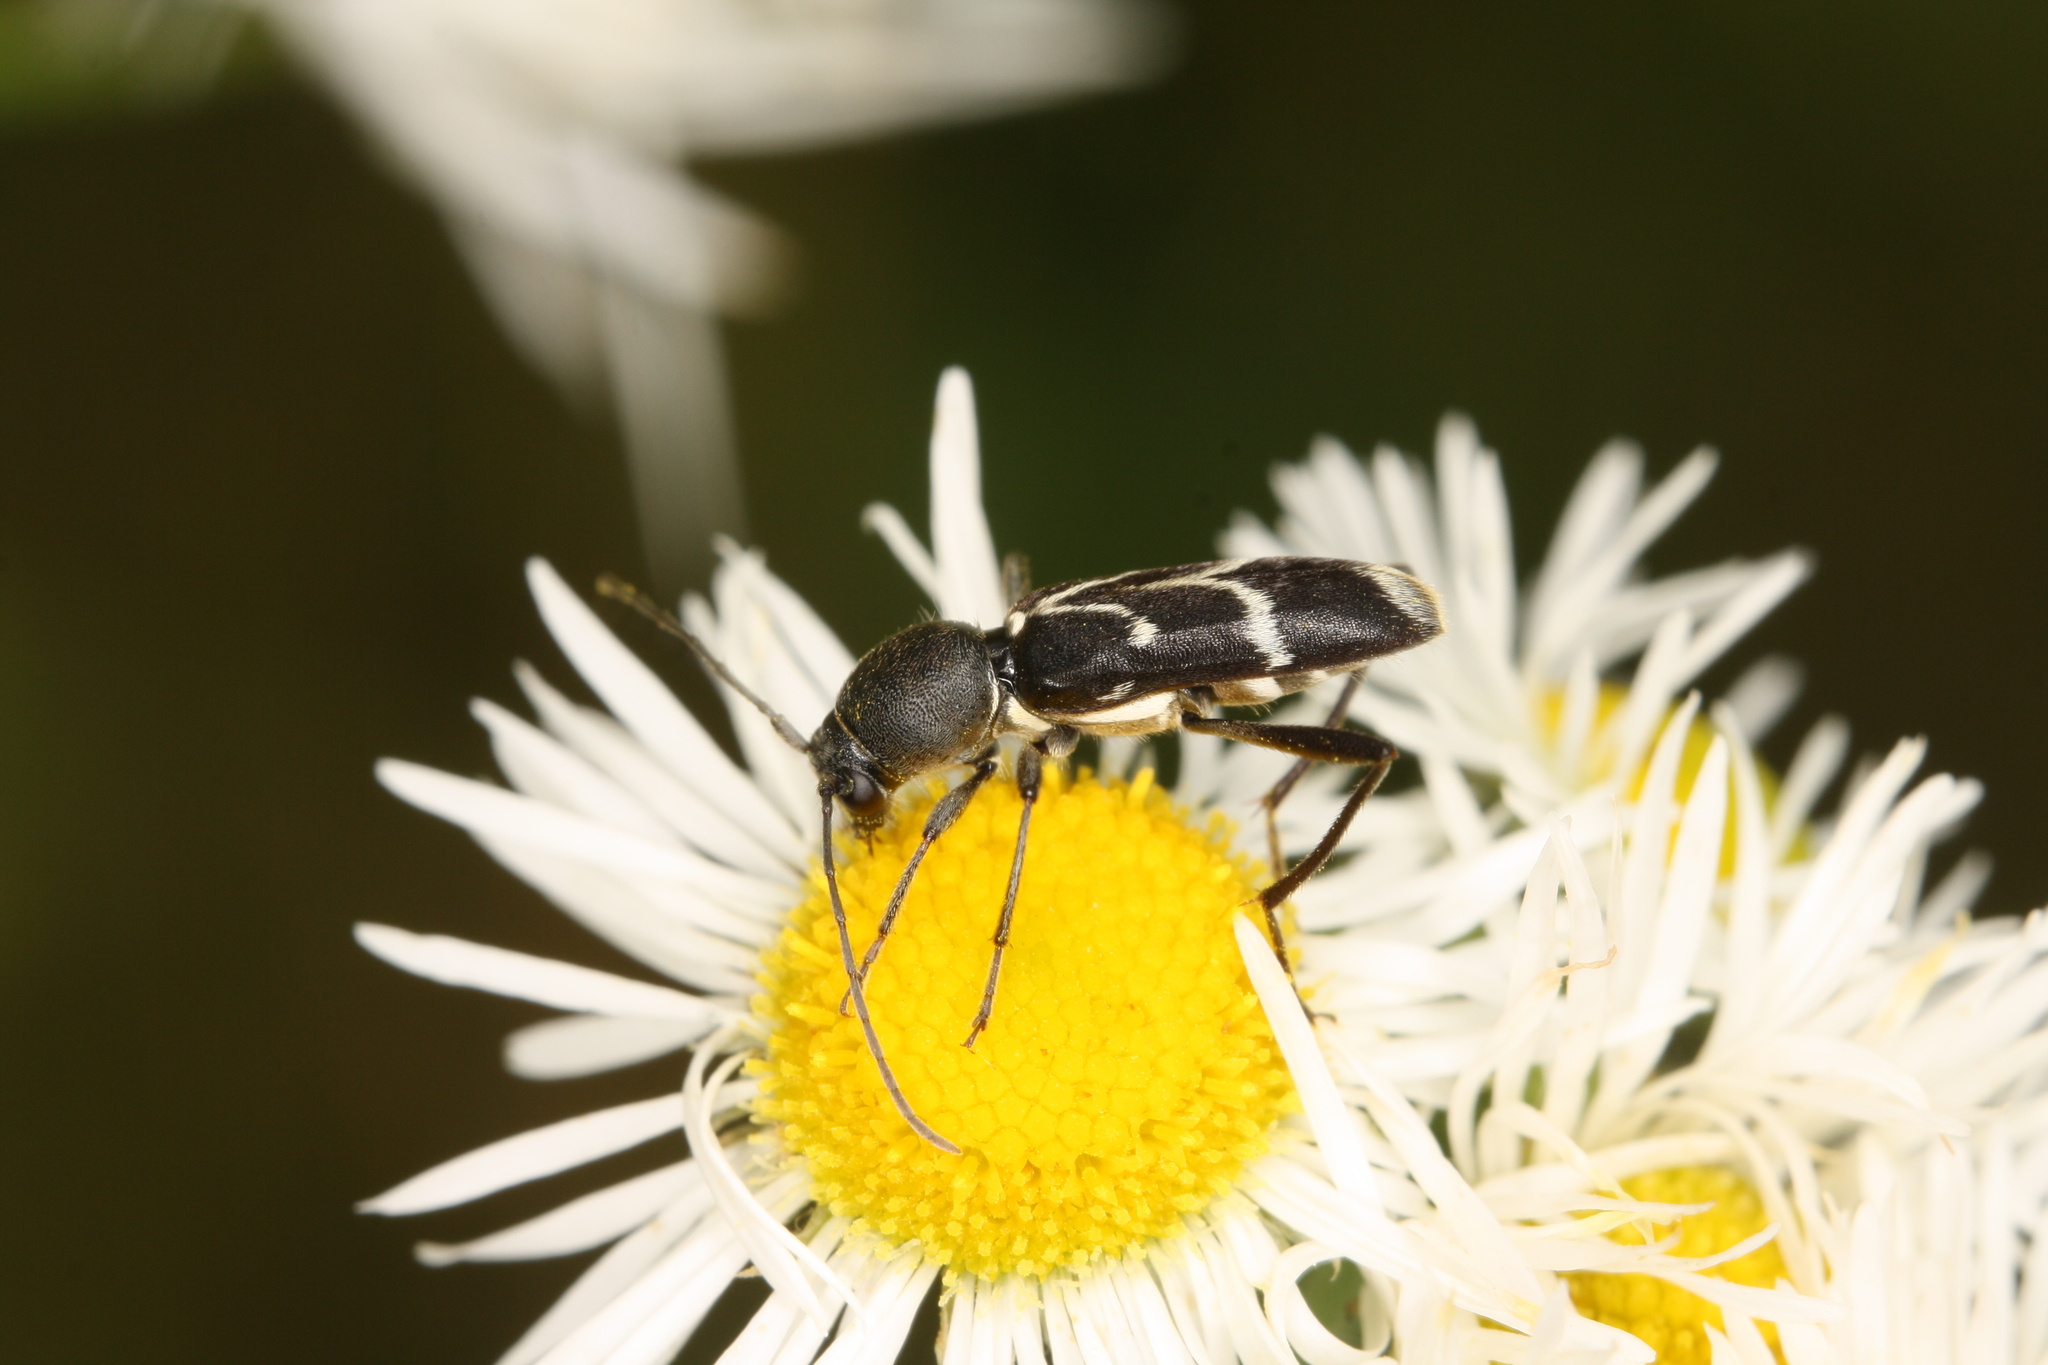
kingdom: Animalia
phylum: Arthropoda
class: Insecta
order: Coleoptera
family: Cerambycidae
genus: Chlorophorus
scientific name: Chlorophorus sartor
